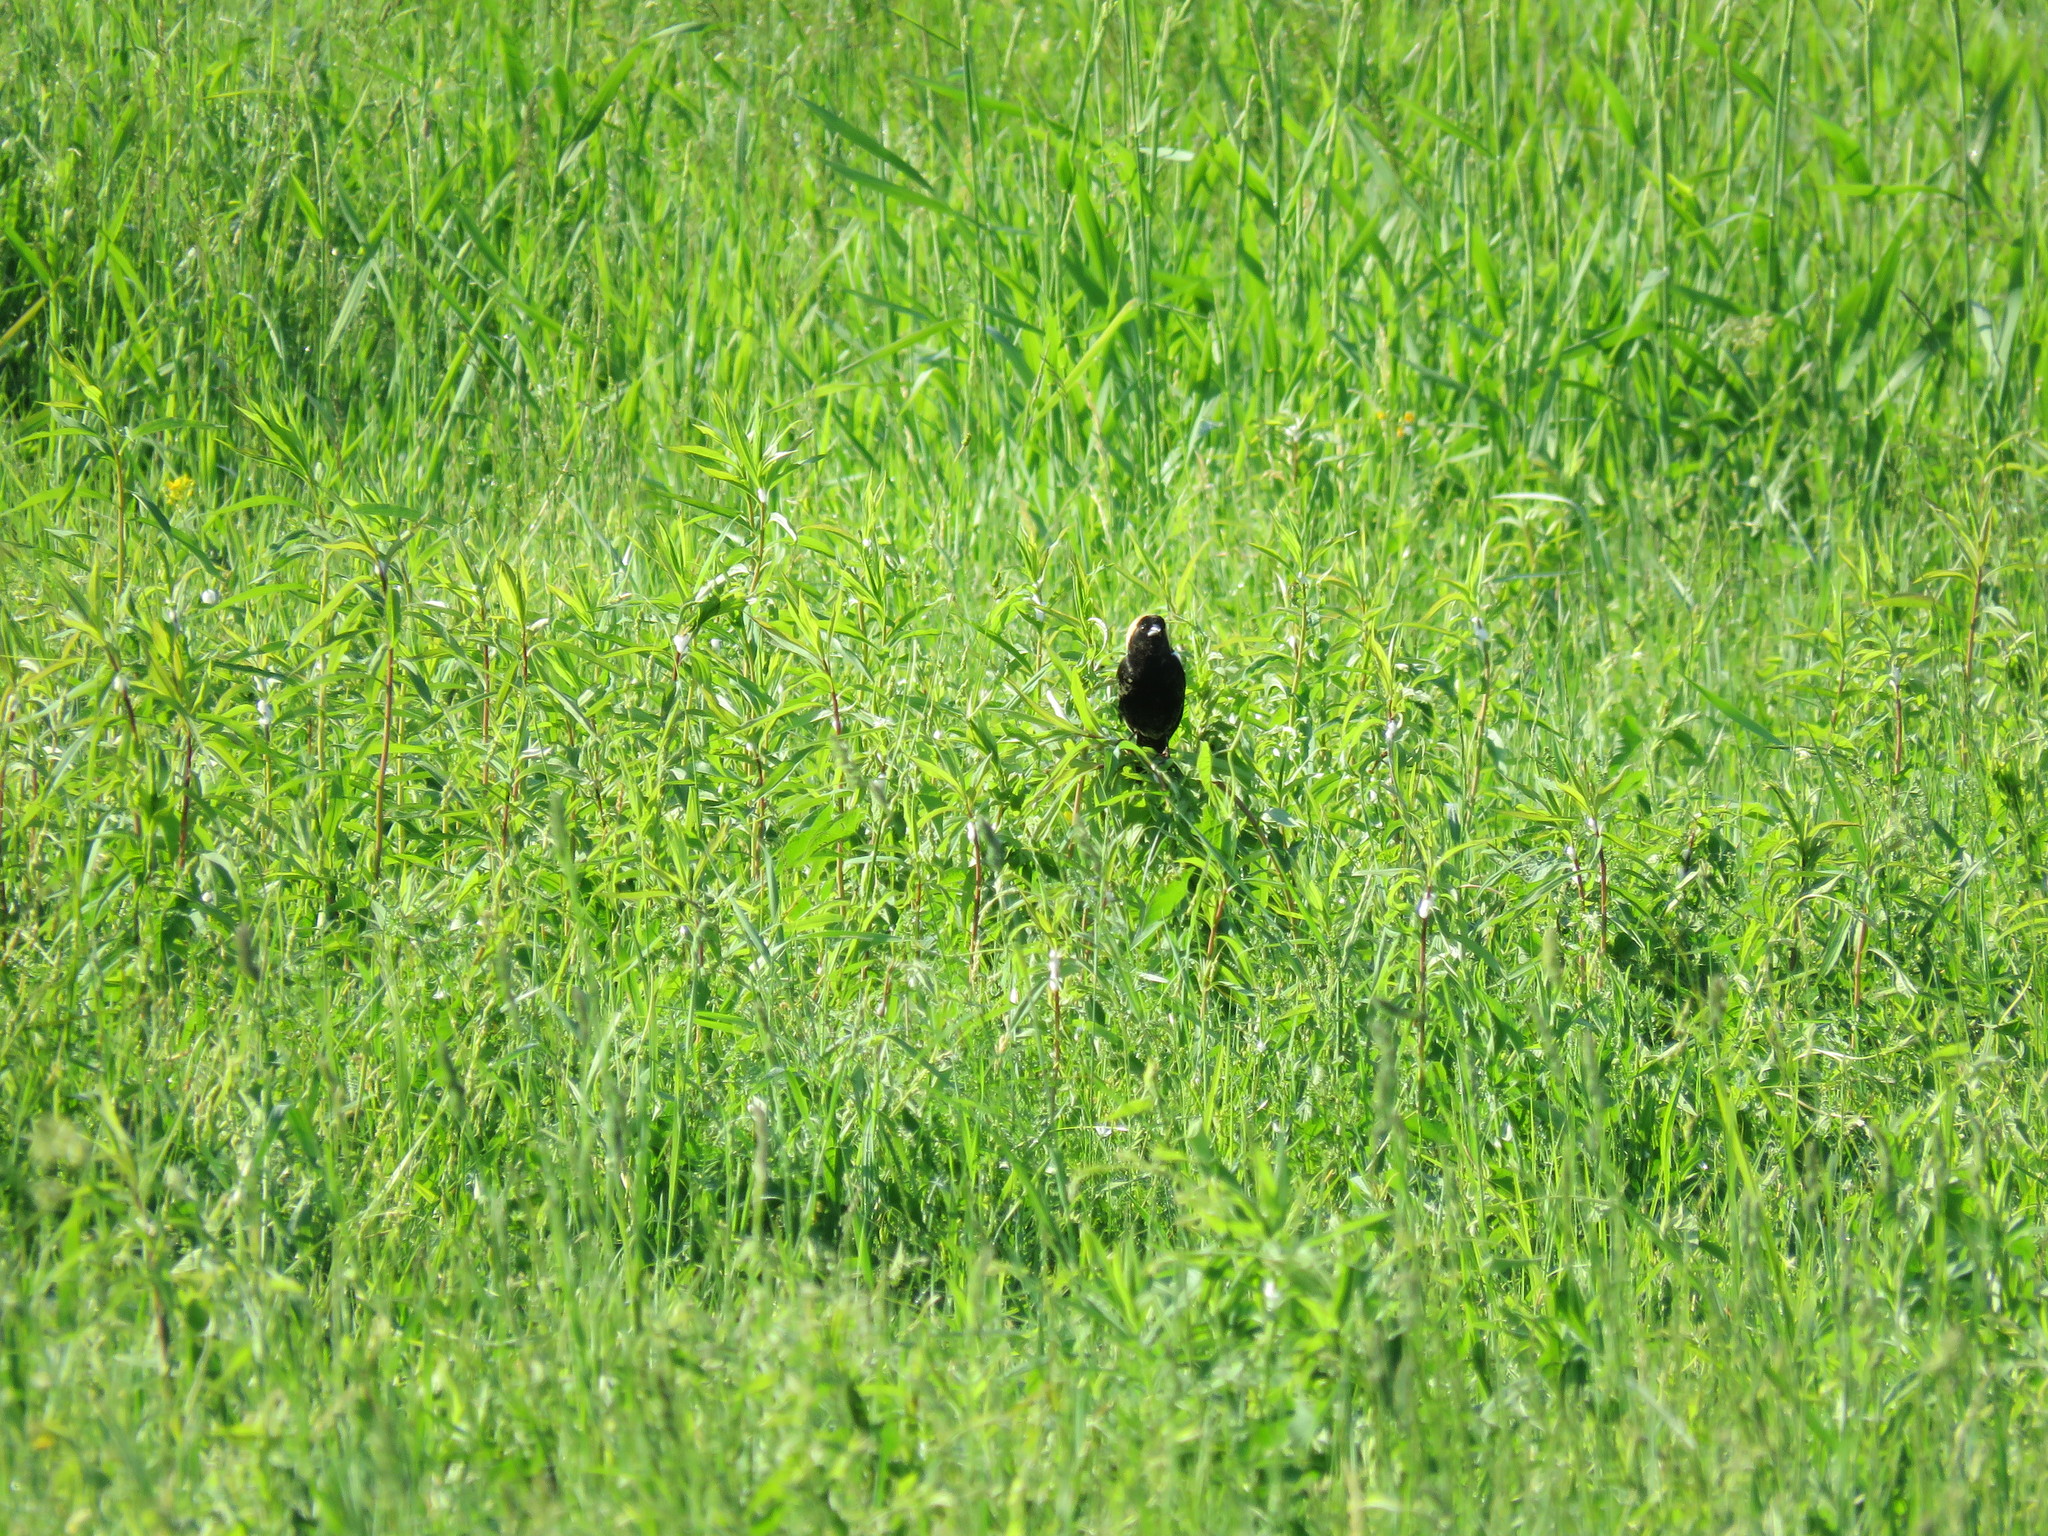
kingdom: Animalia
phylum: Chordata
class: Aves
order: Passeriformes
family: Icteridae
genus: Dolichonyx
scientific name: Dolichonyx oryzivorus
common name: Bobolink
